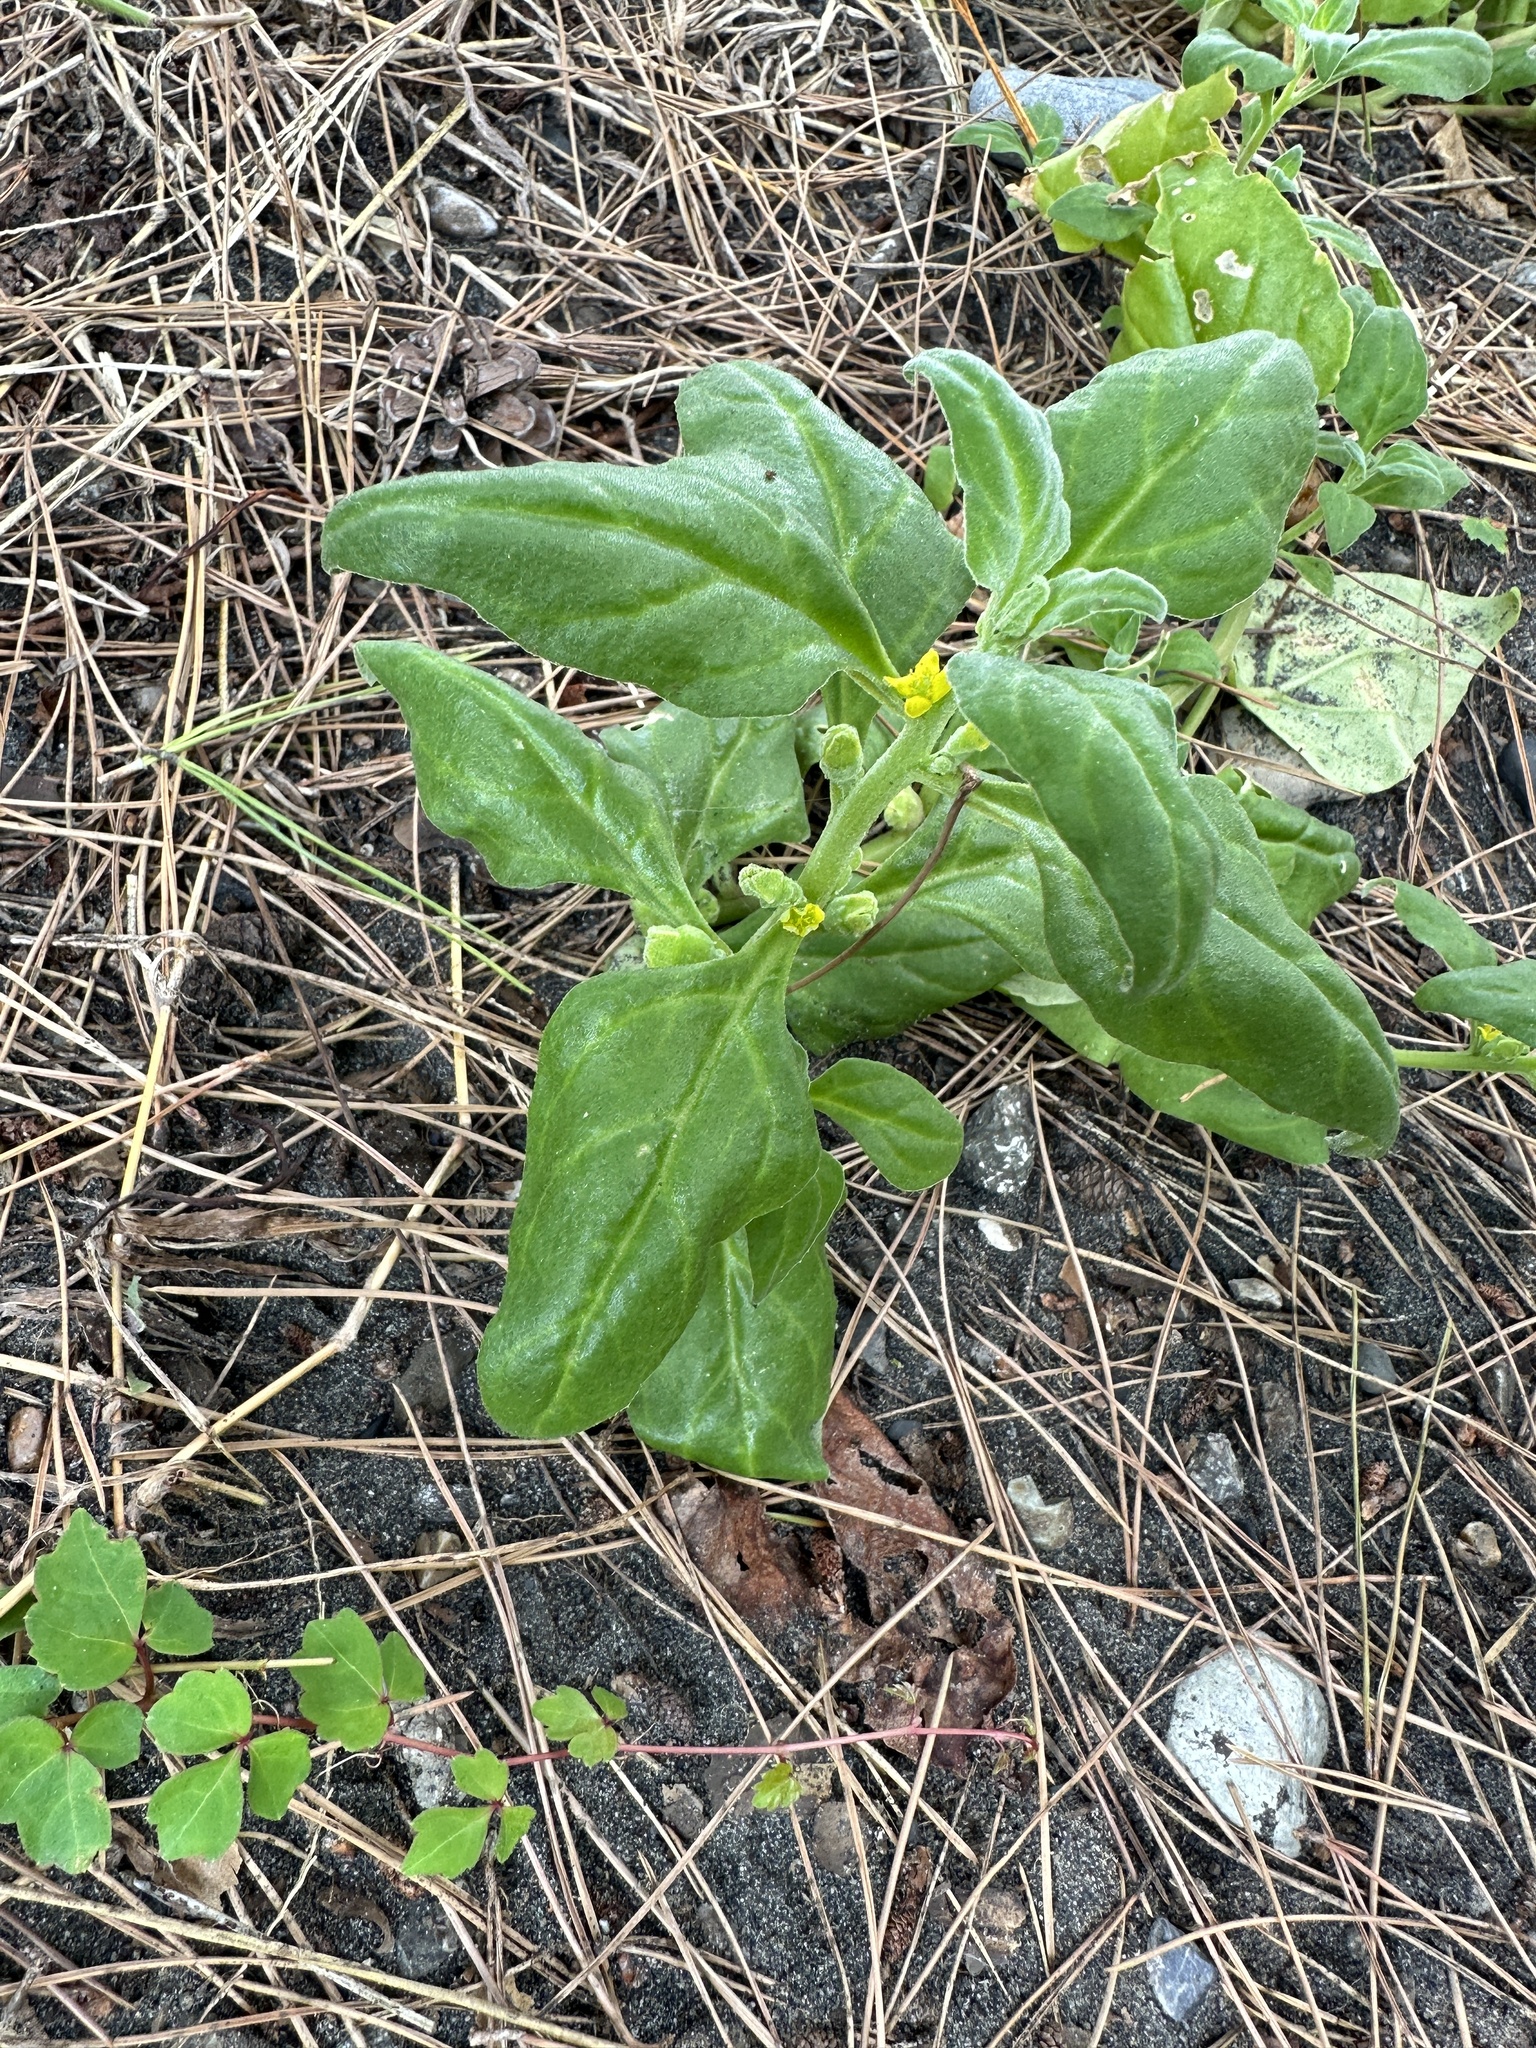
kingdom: Plantae
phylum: Tracheophyta
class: Magnoliopsida
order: Caryophyllales
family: Aizoaceae
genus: Tetragonia
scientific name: Tetragonia tetragonoides
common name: New zealand-spinach
